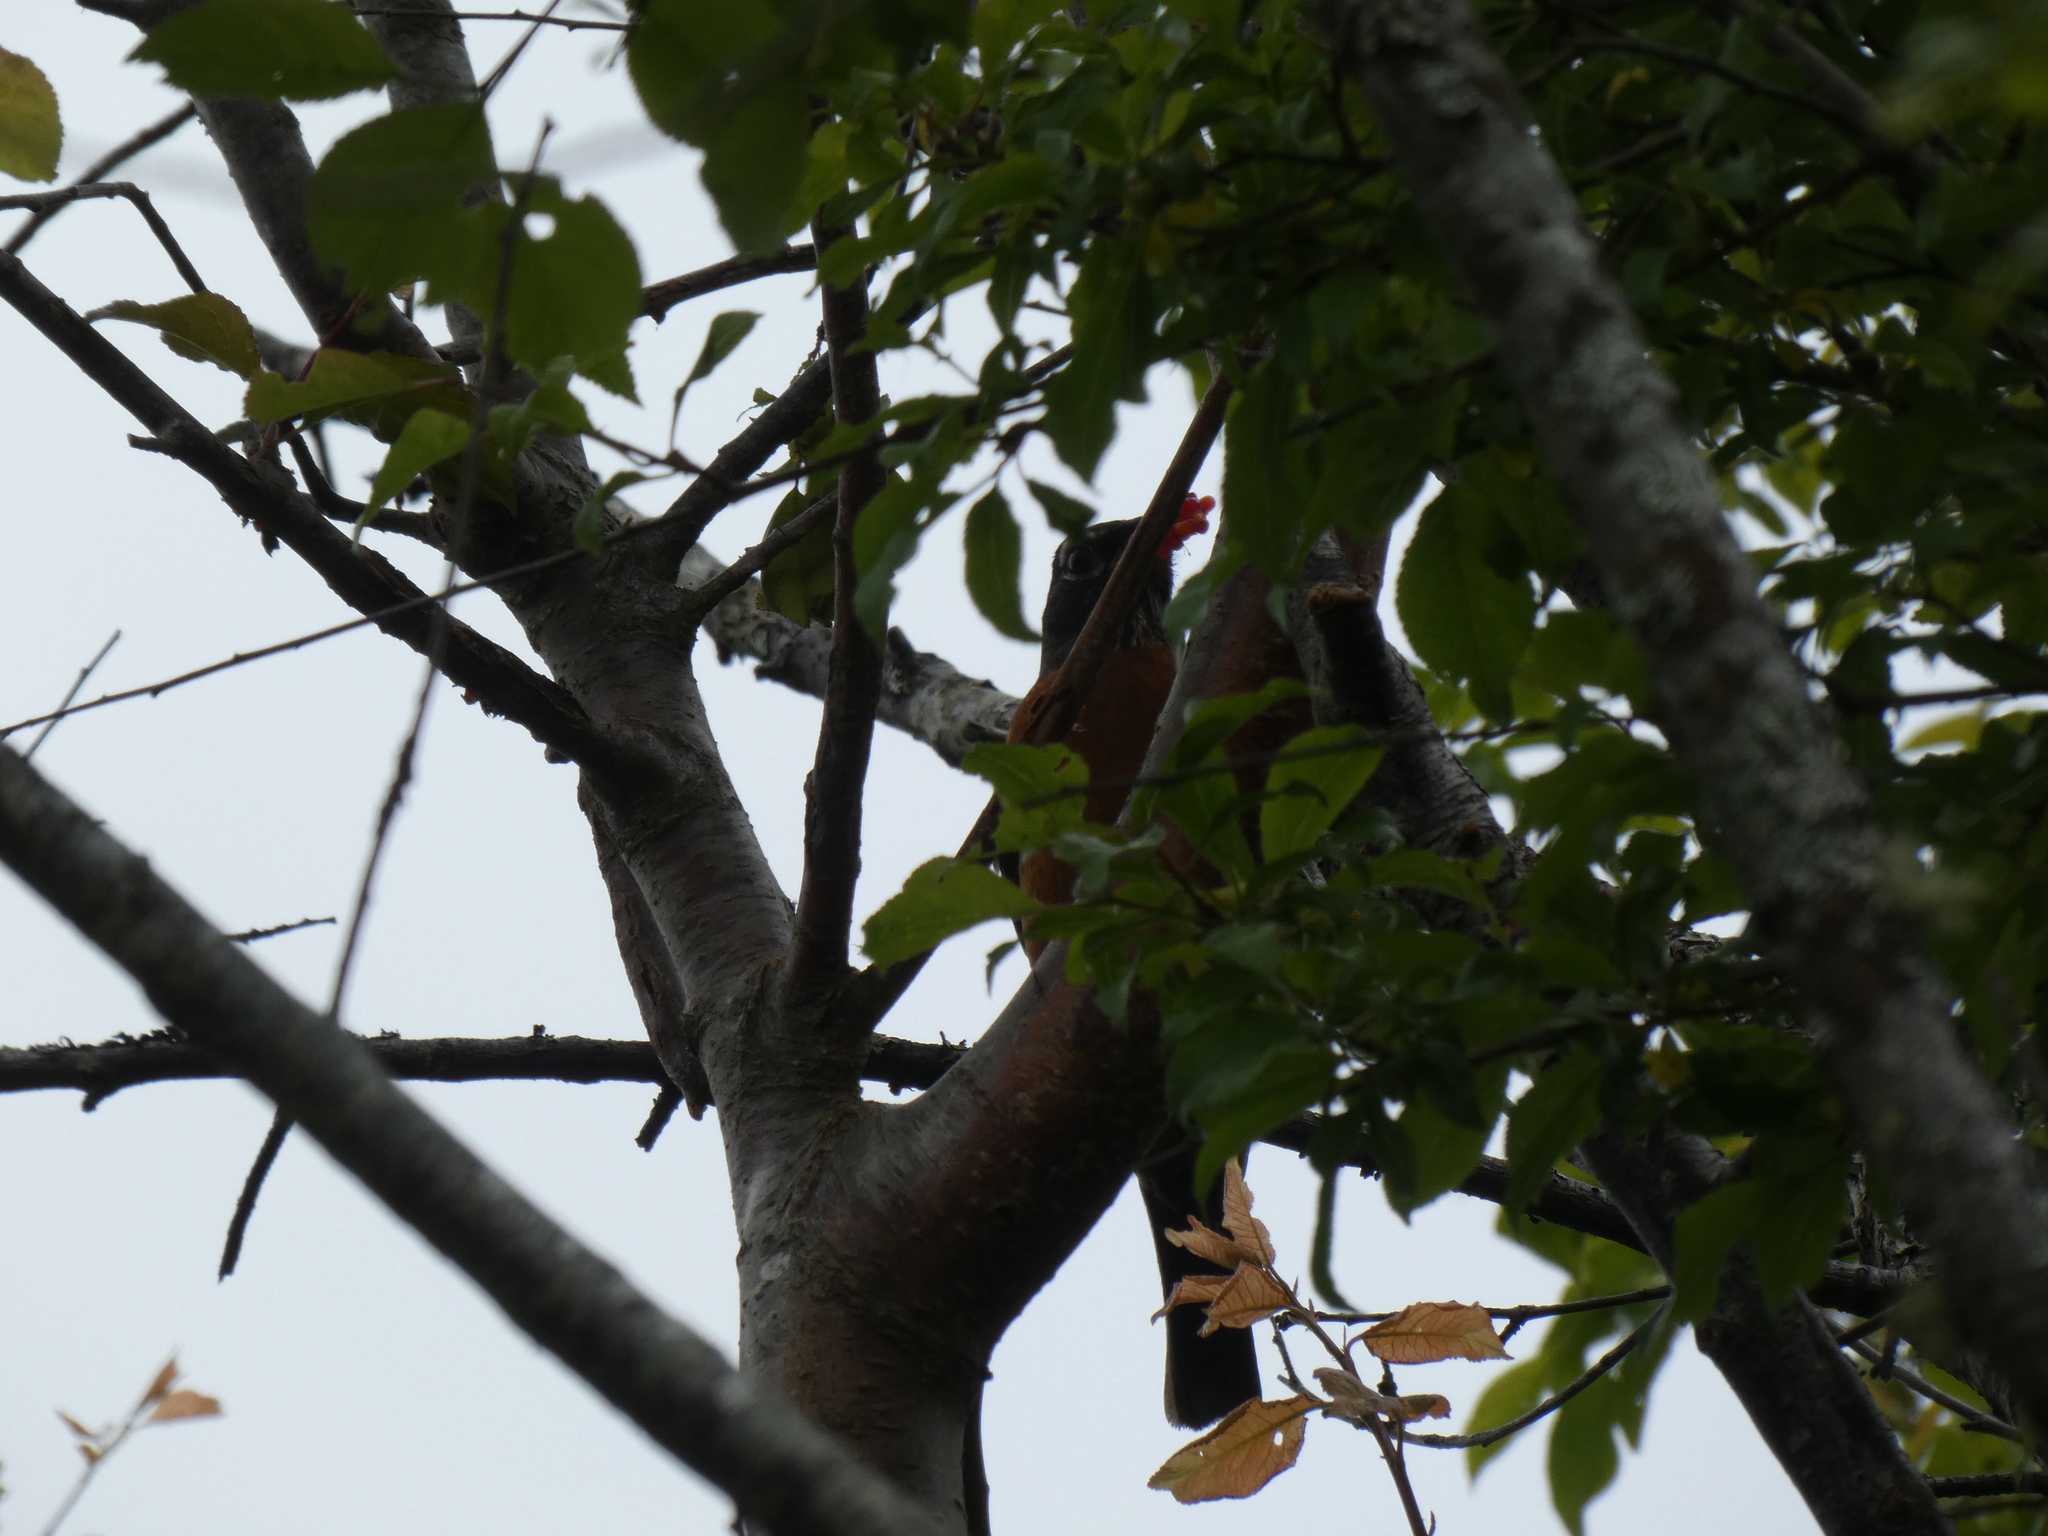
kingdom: Animalia
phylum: Chordata
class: Aves
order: Passeriformes
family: Turdidae
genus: Turdus
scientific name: Turdus migratorius
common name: American robin
